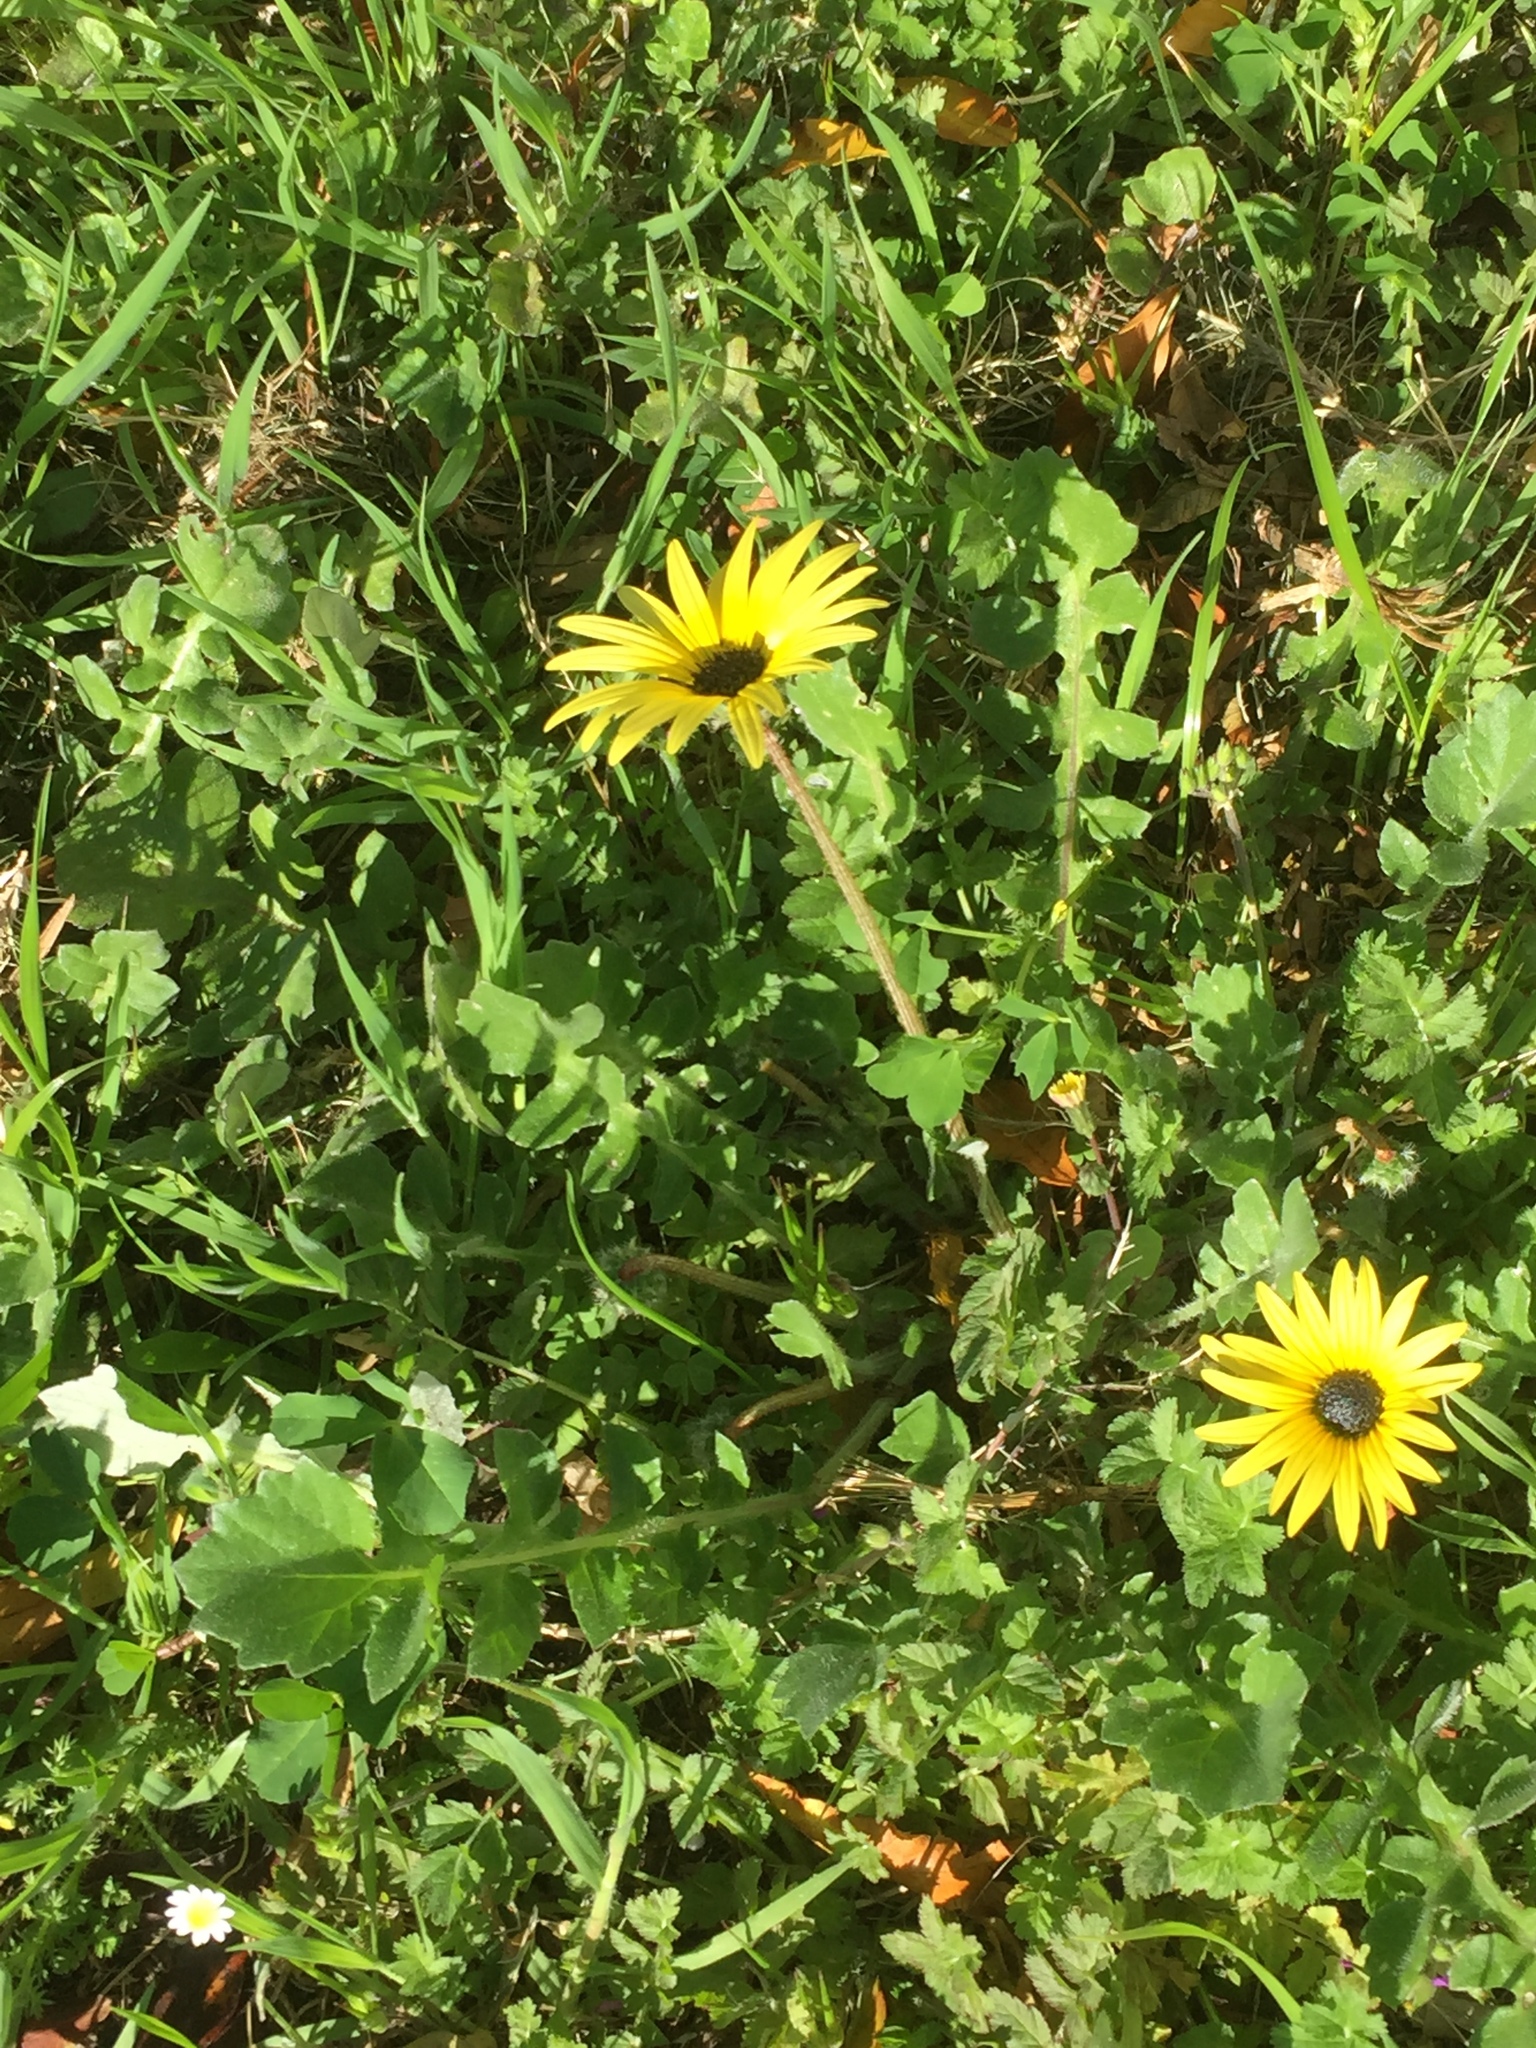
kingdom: Plantae
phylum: Tracheophyta
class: Magnoliopsida
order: Asterales
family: Asteraceae
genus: Arctotheca
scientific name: Arctotheca calendula
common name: Capeweed
